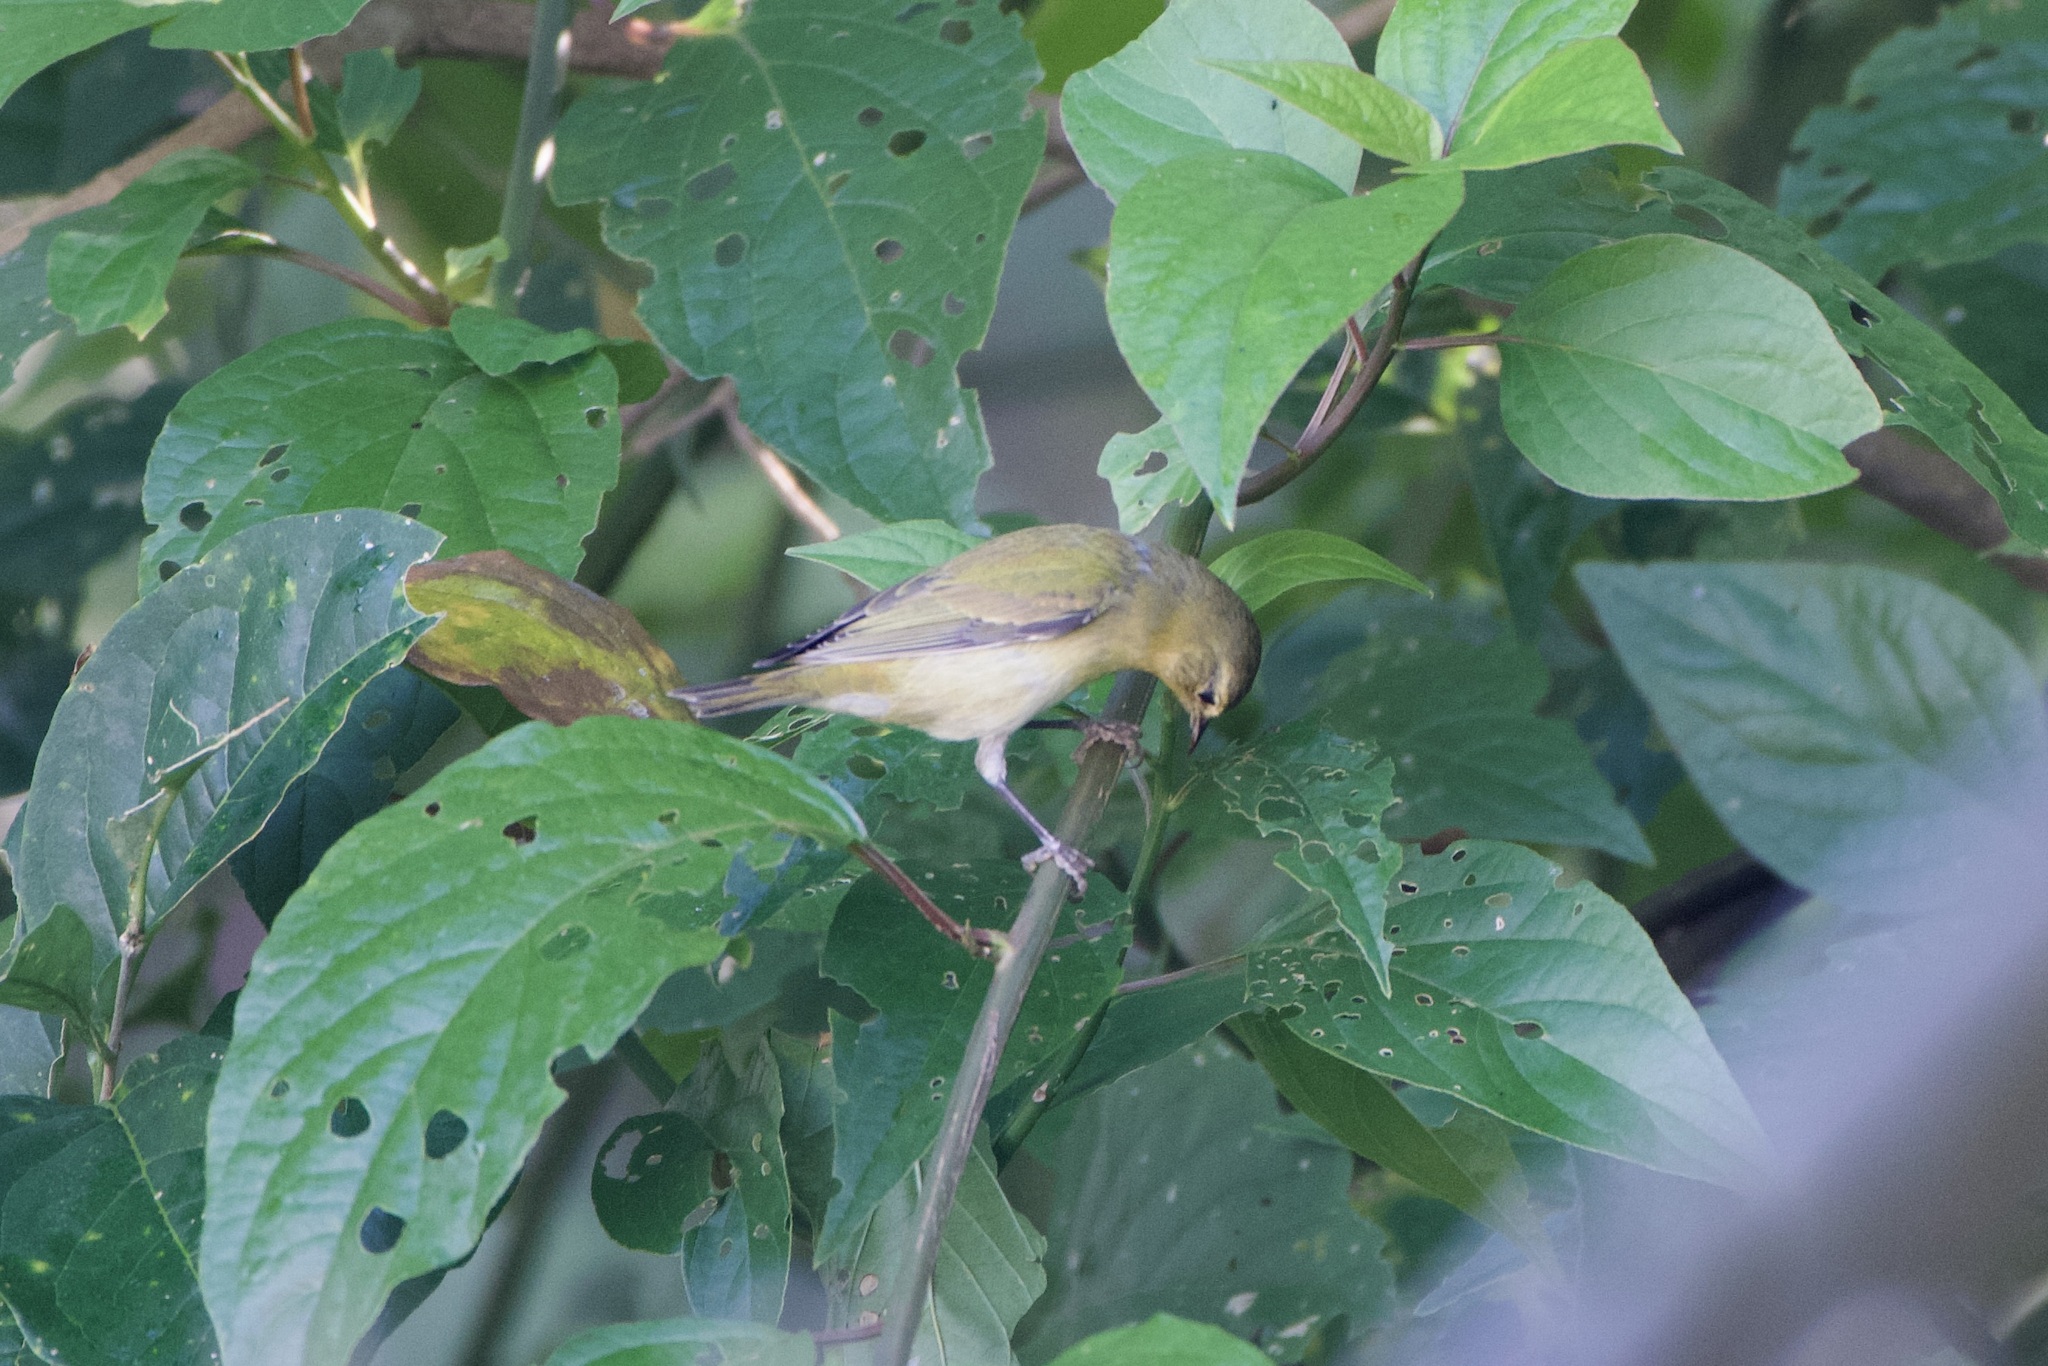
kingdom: Animalia
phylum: Chordata
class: Aves
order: Passeriformes
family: Parulidae
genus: Leiothlypis
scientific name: Leiothlypis peregrina
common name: Tennessee warbler
